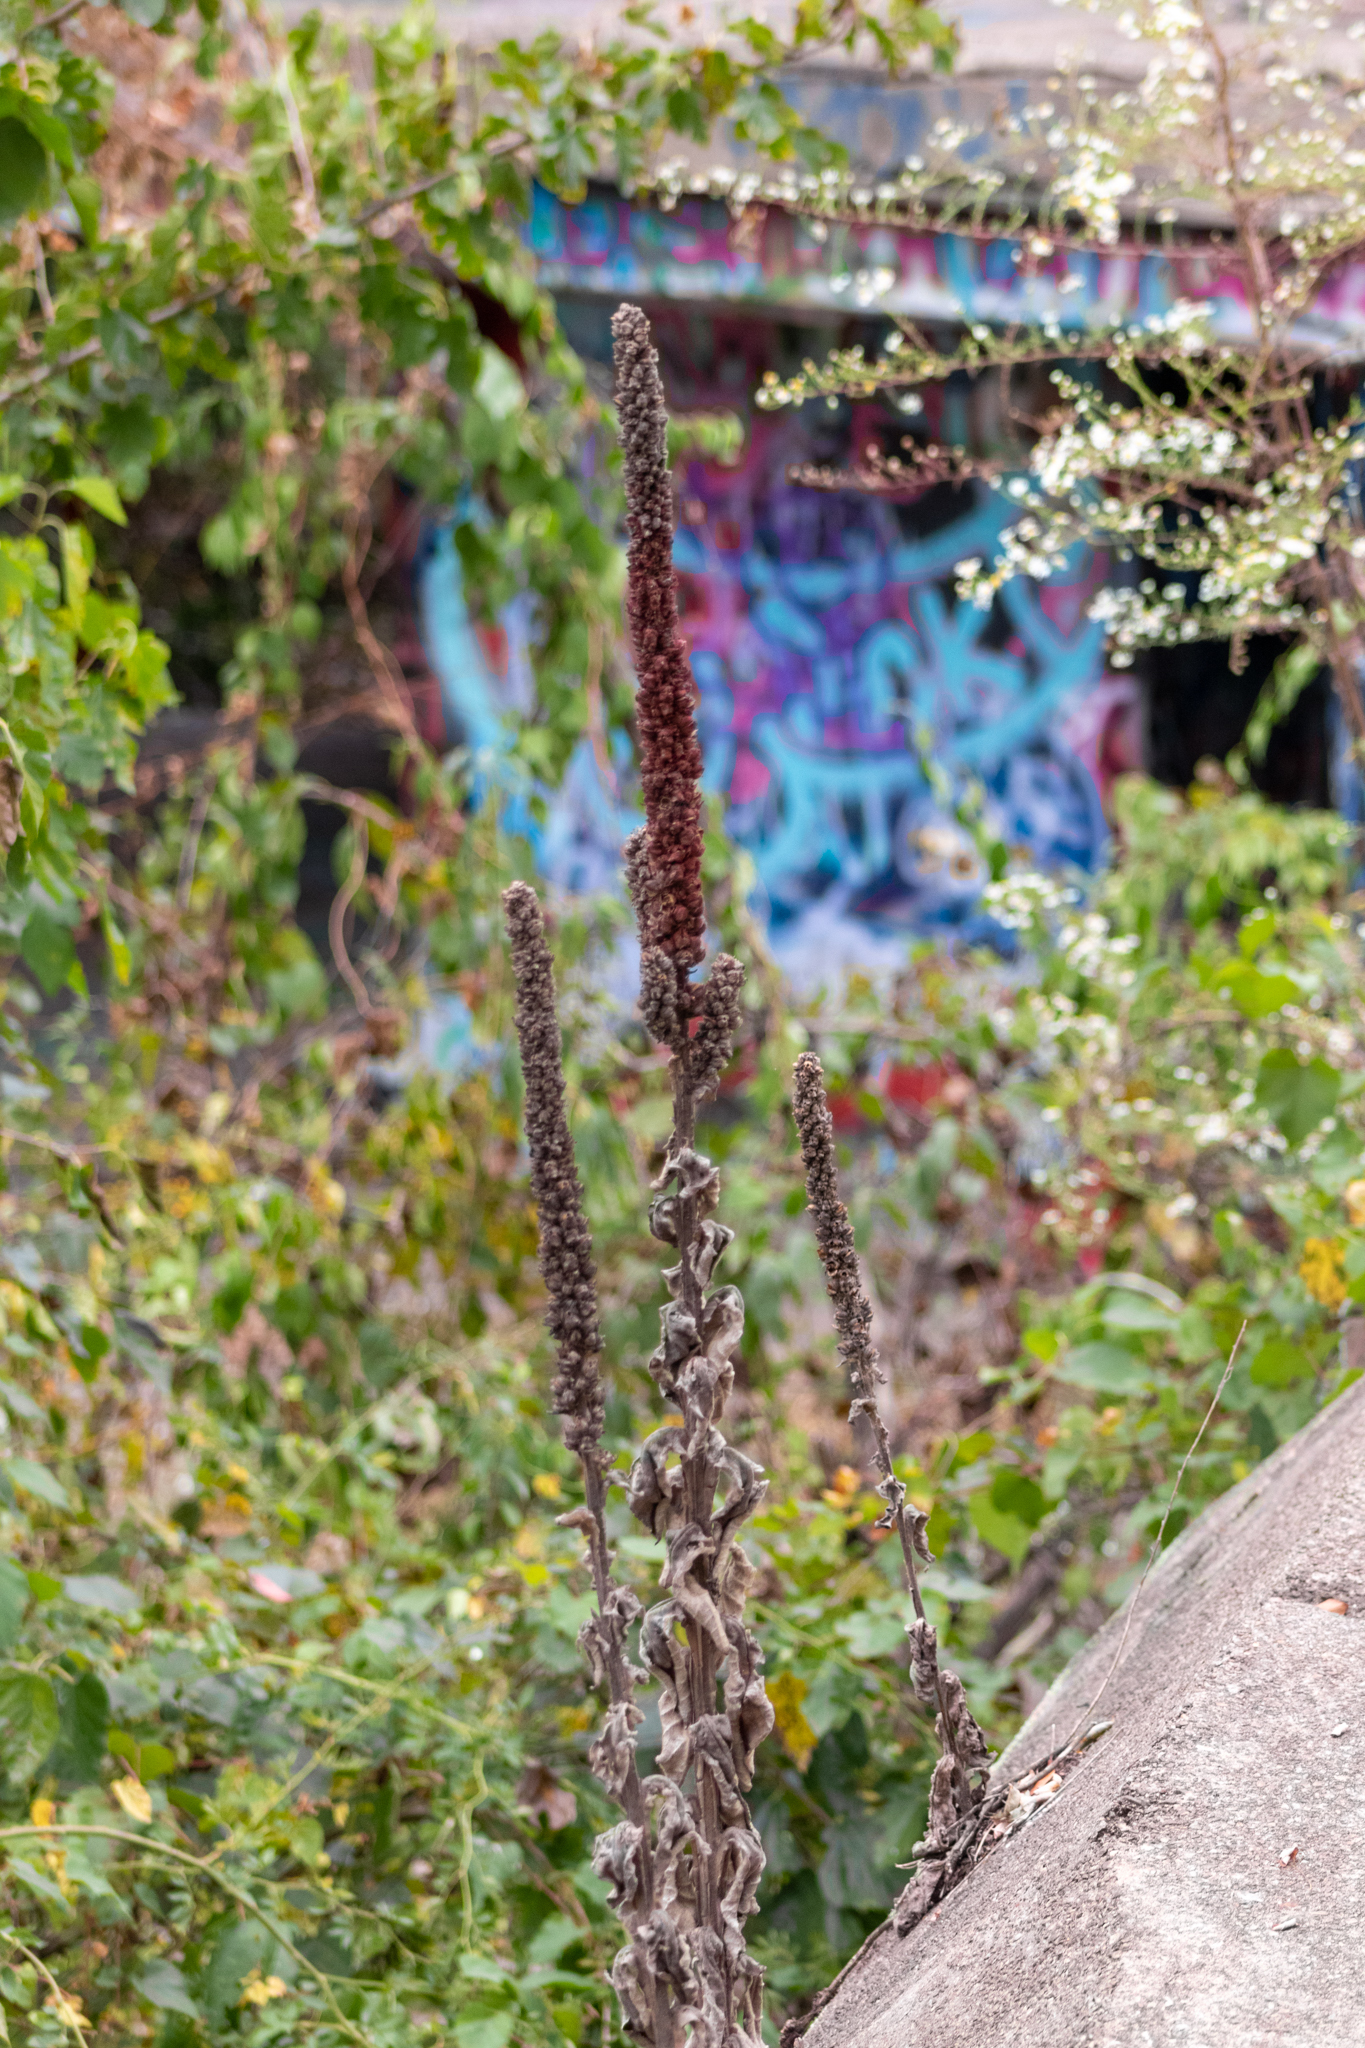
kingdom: Plantae
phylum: Tracheophyta
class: Magnoliopsida
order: Lamiales
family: Scrophulariaceae
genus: Verbascum
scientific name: Verbascum thapsus
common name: Common mullein
